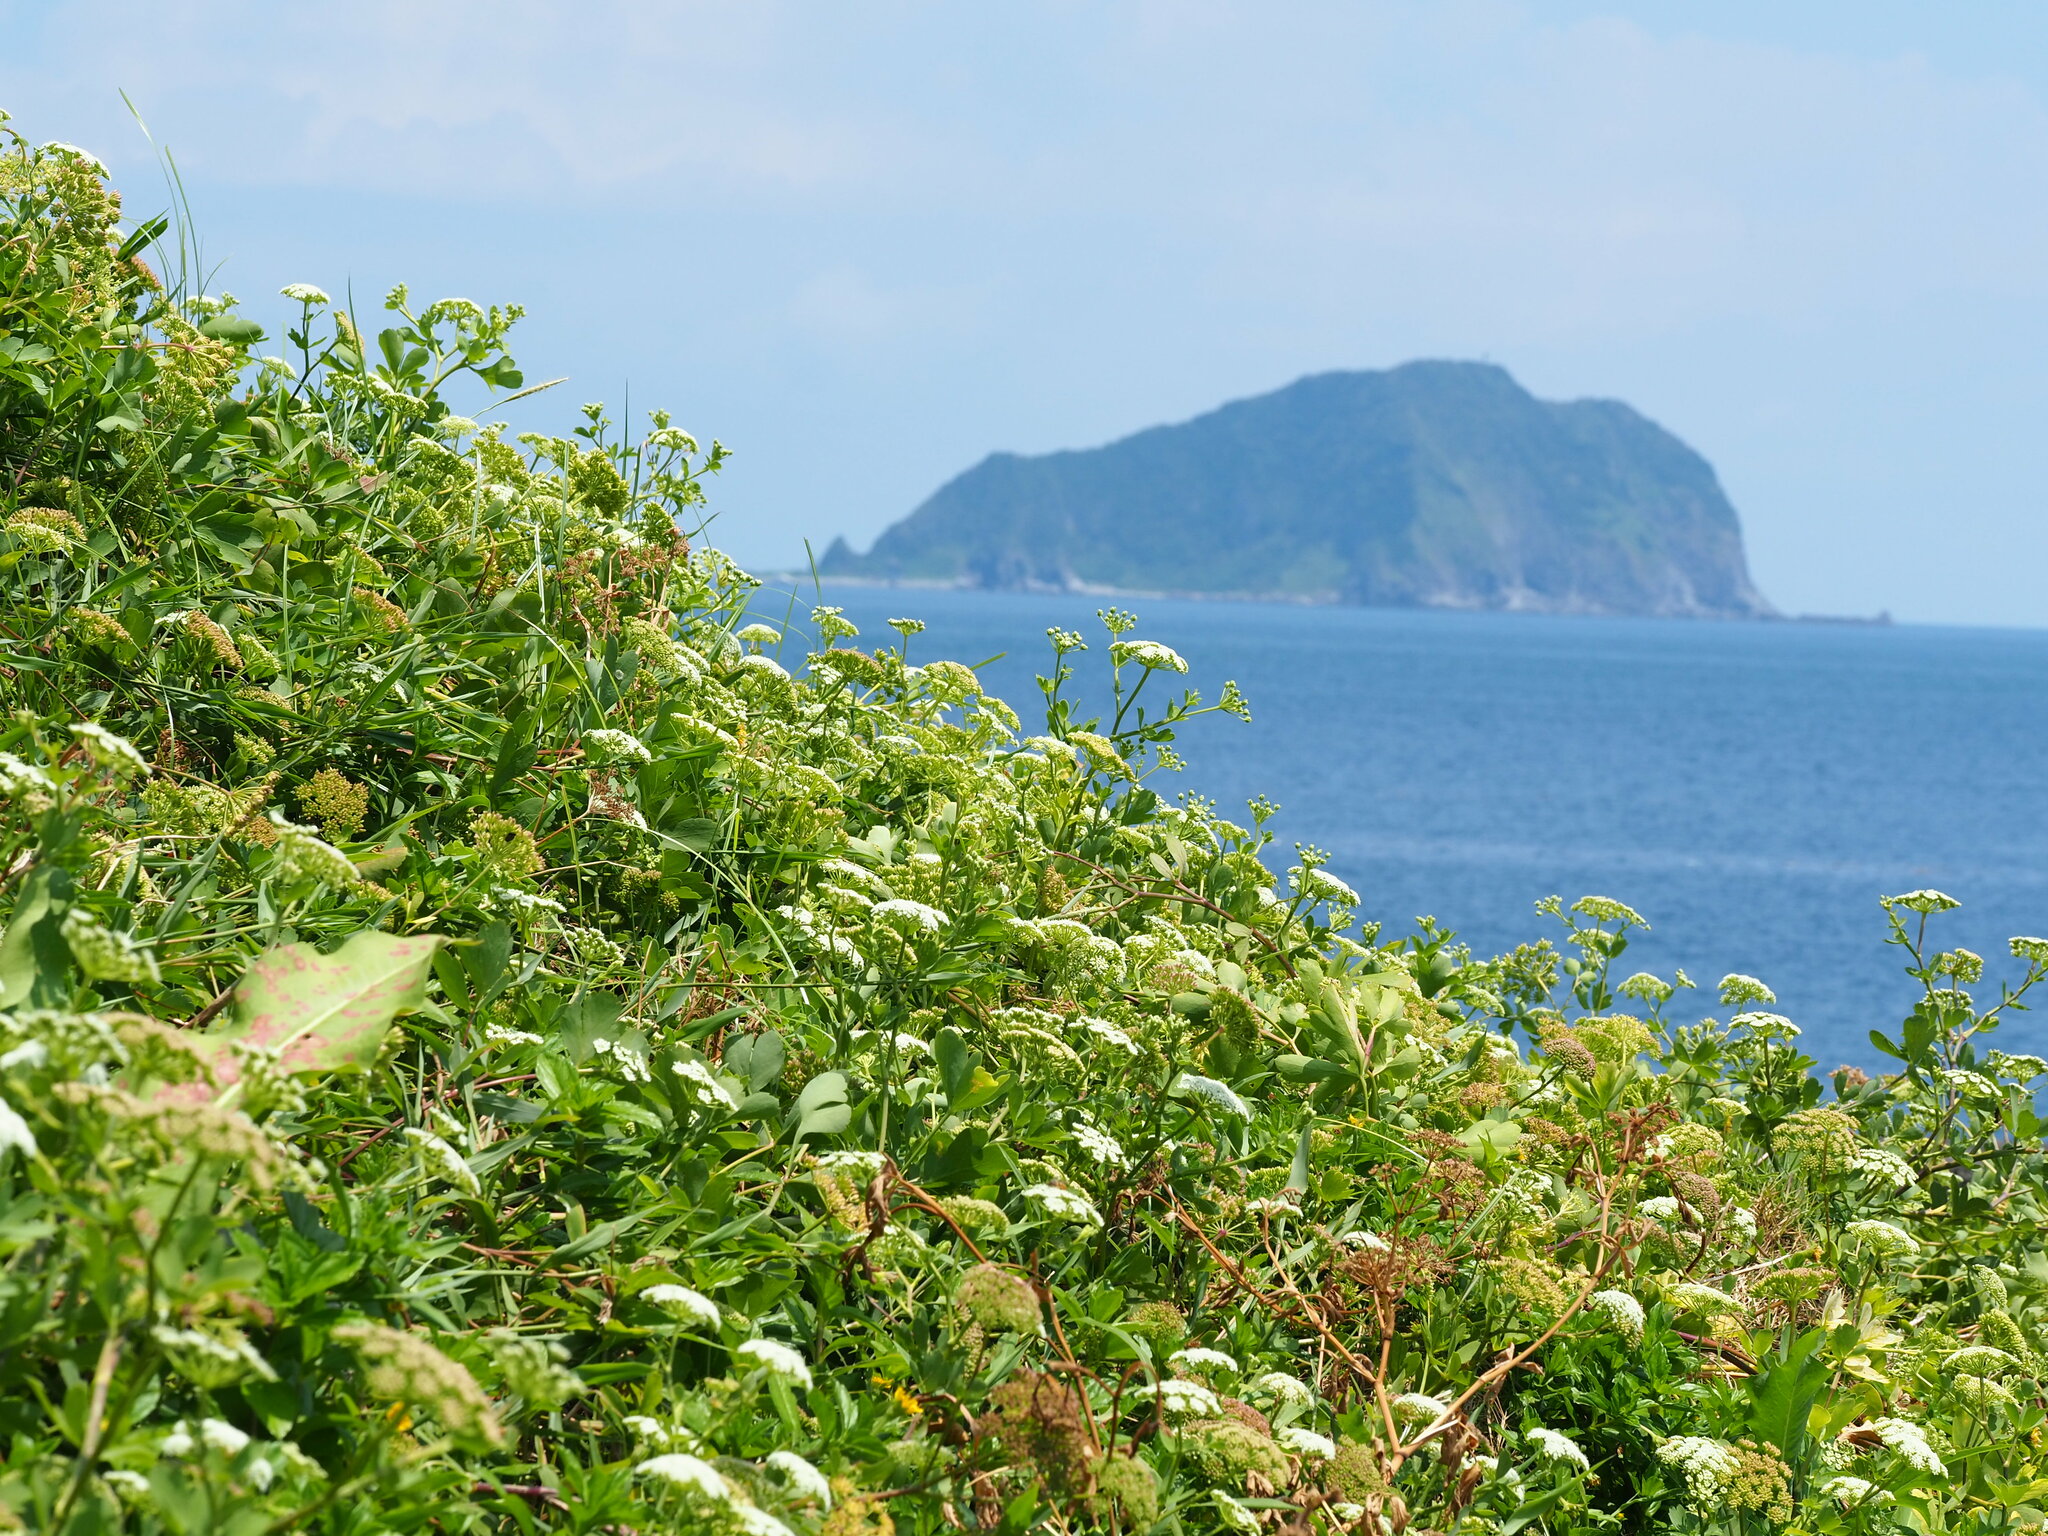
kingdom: Plantae
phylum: Tracheophyta
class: Magnoliopsida
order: Apiales
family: Apiaceae
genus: Peucedanum
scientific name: Peucedanum japonicum
